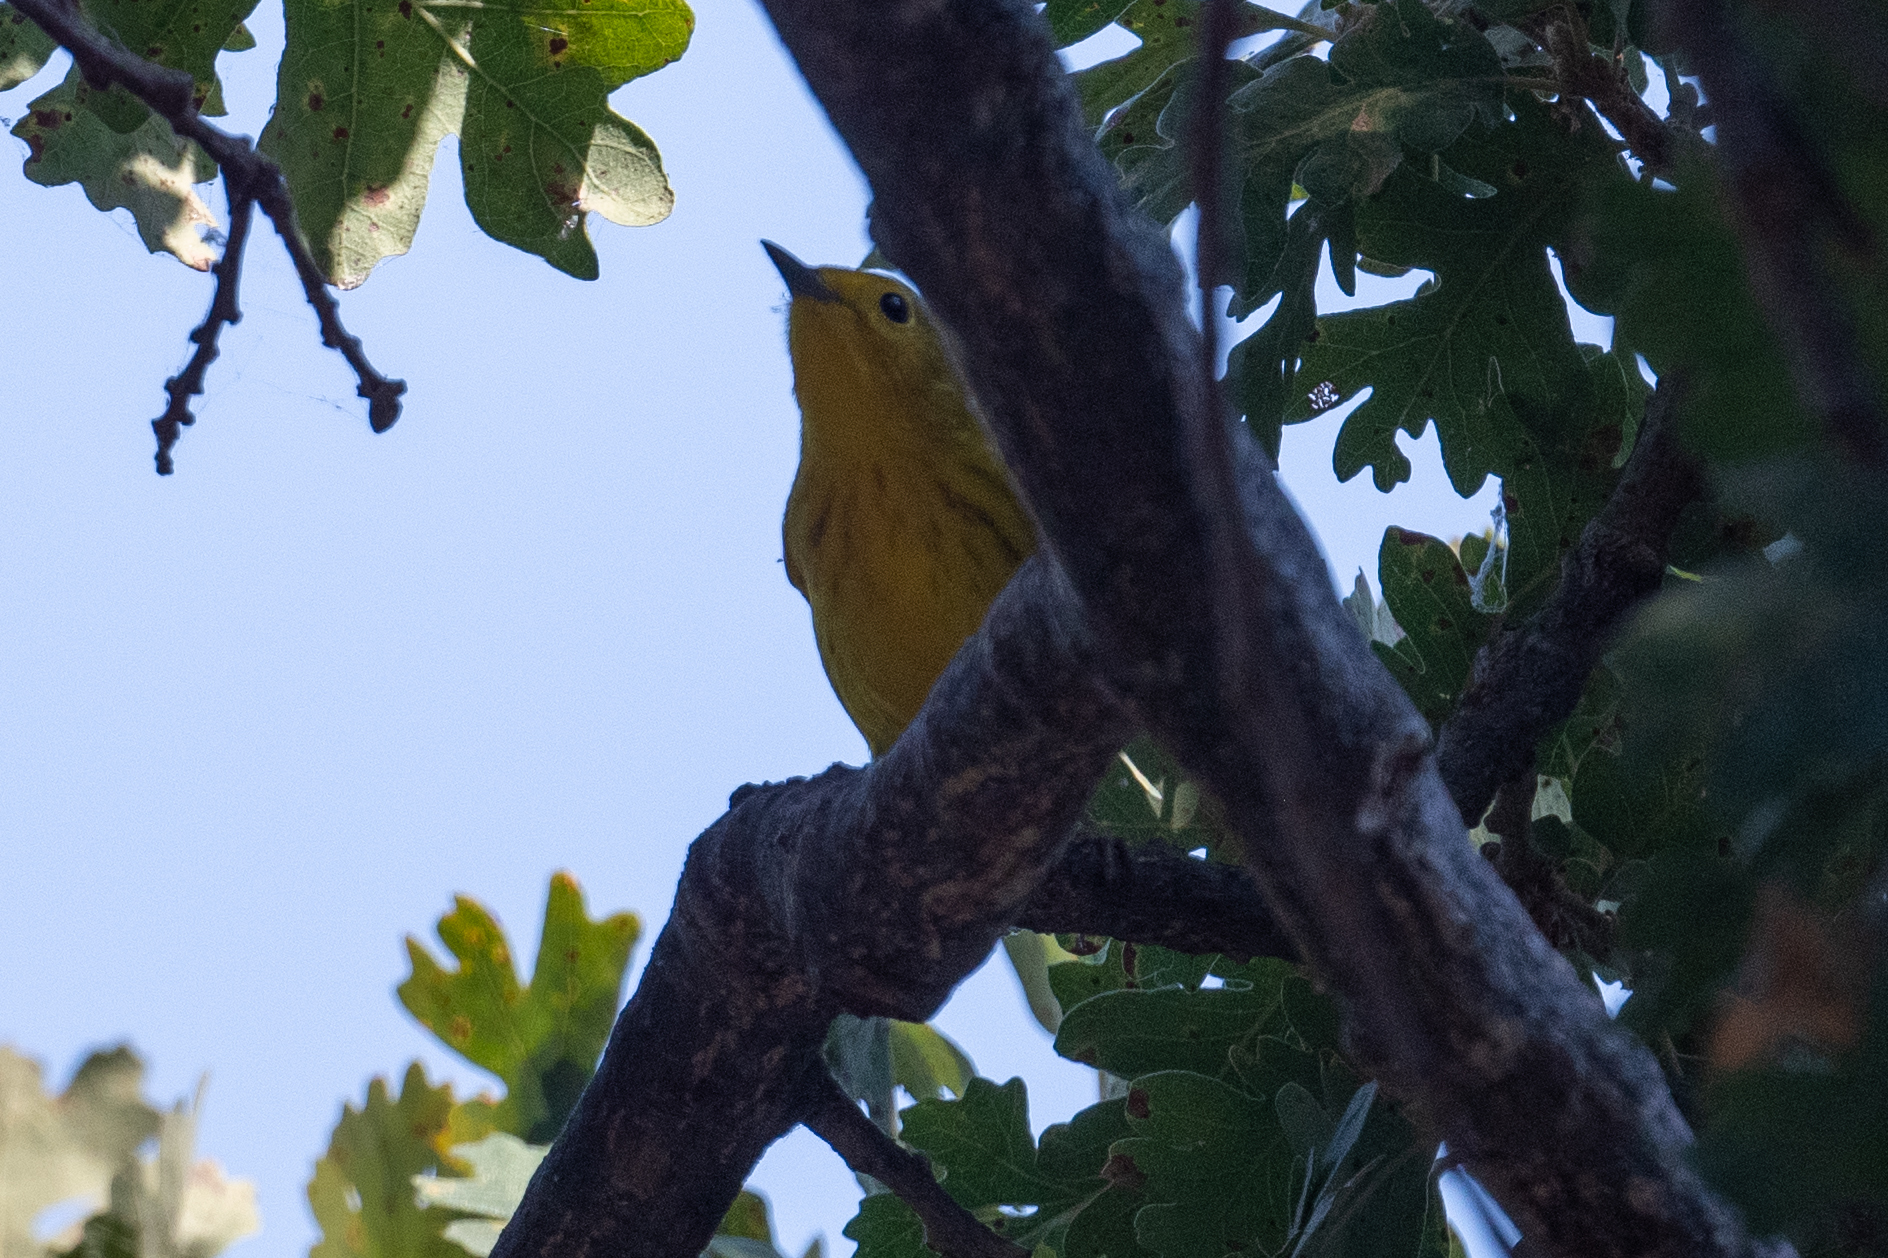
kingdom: Animalia
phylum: Chordata
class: Aves
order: Passeriformes
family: Parulidae
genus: Setophaga
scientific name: Setophaga petechia
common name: Yellow warbler
